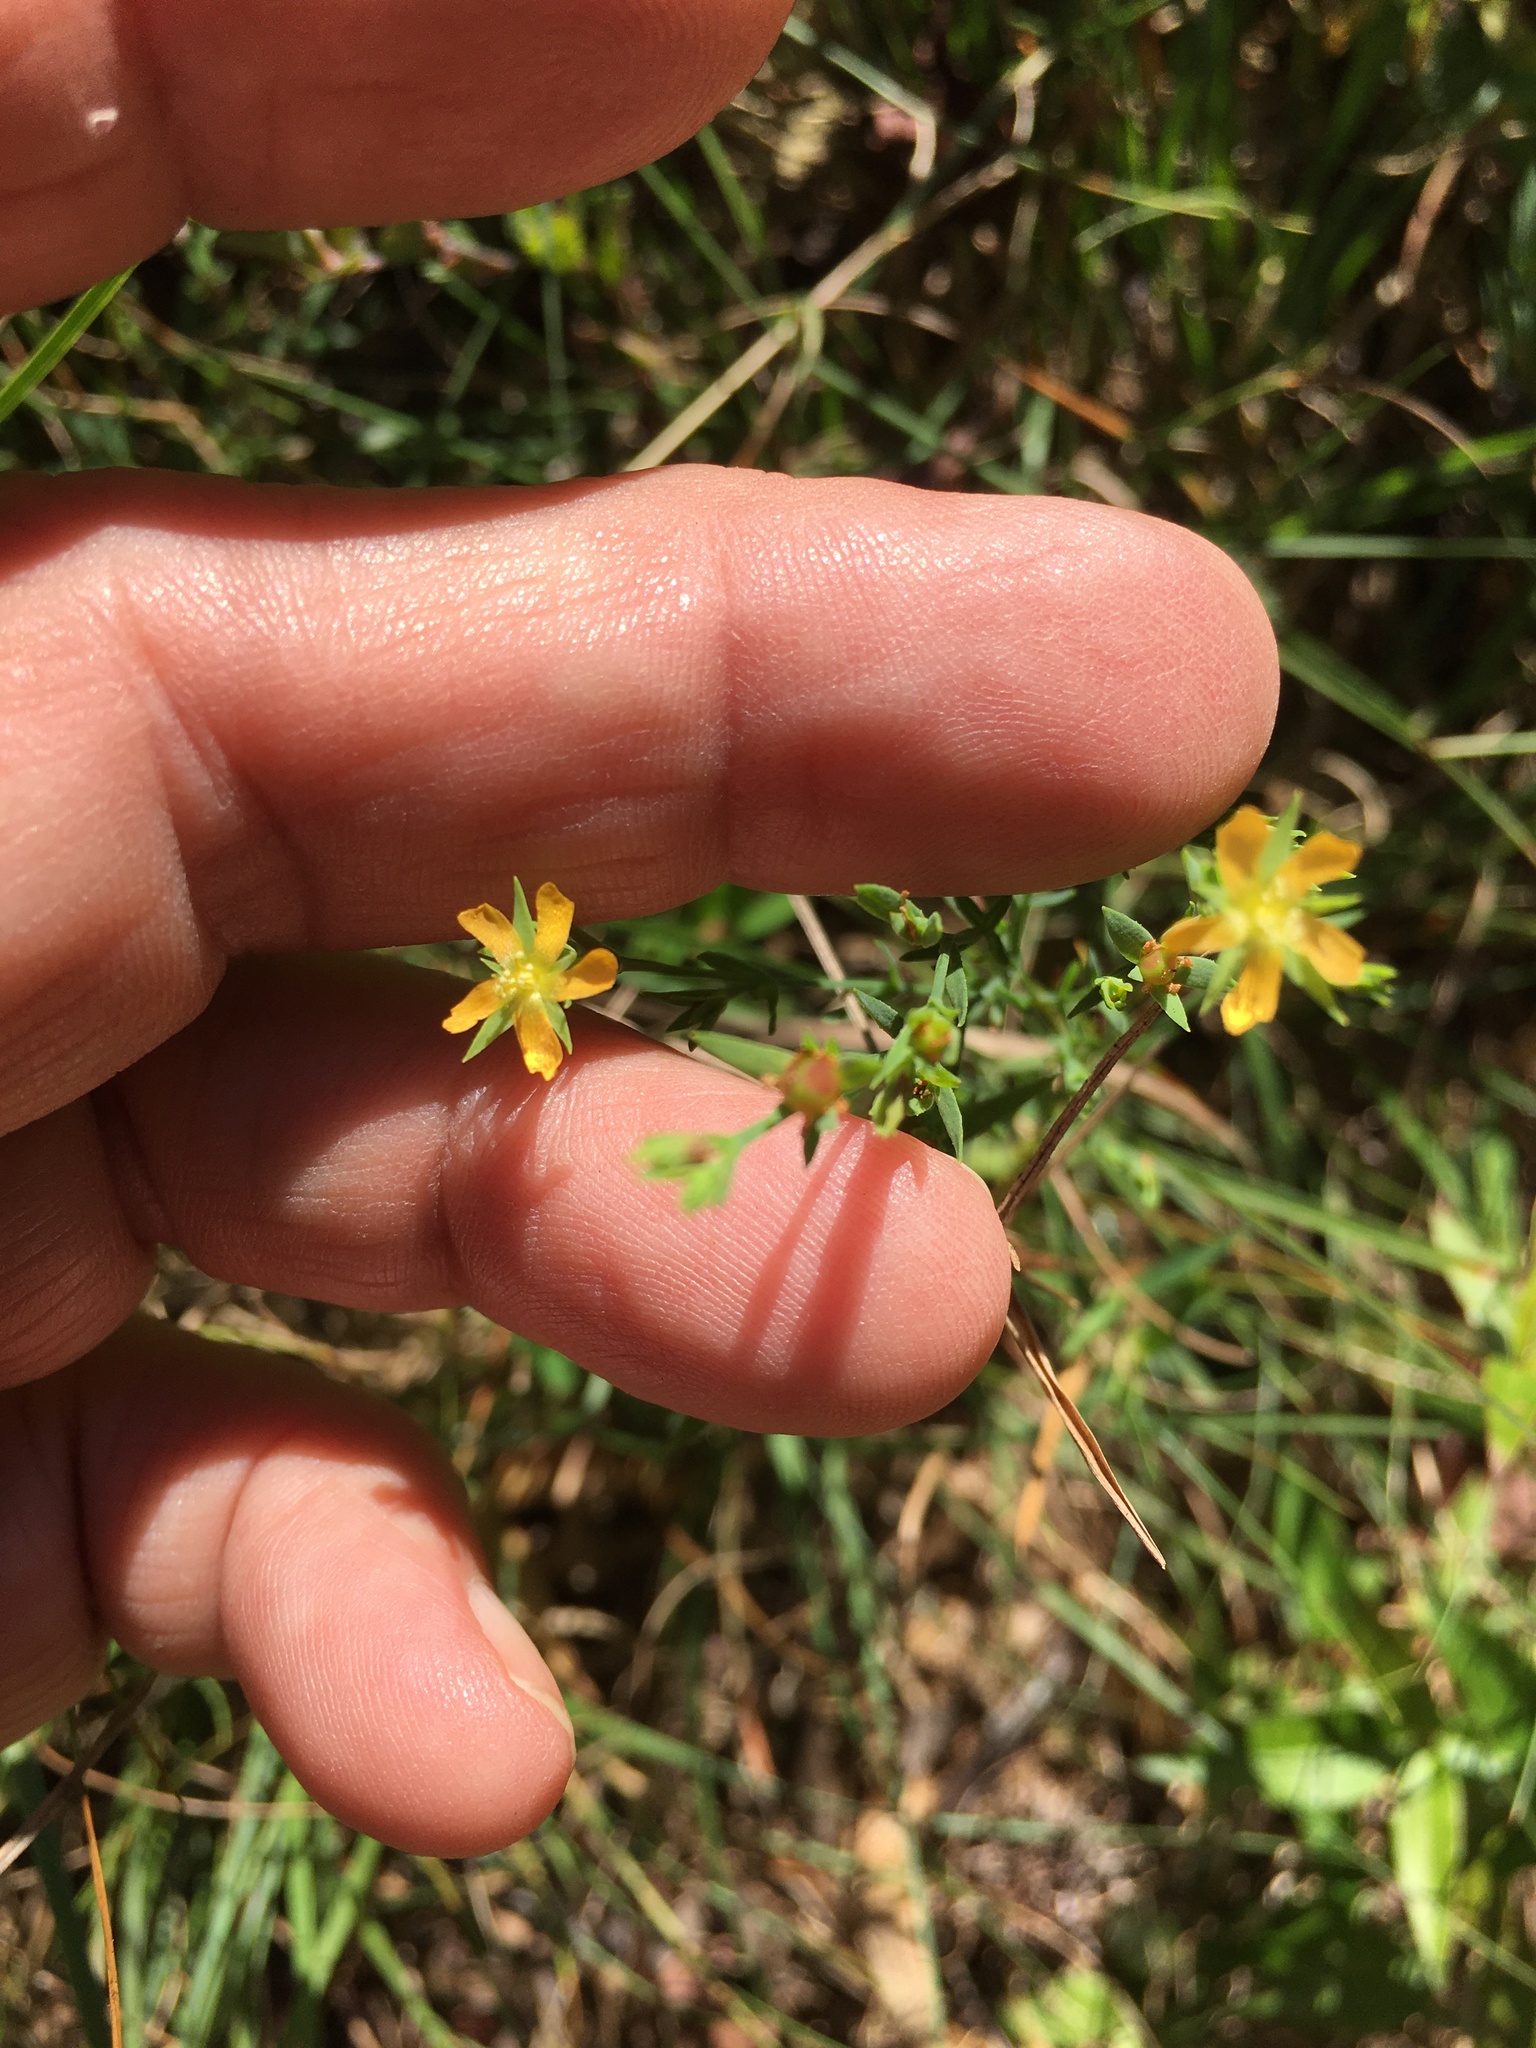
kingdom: Plantae
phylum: Tracheophyta
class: Magnoliopsida
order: Malpighiales
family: Hypericaceae
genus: Hypericum
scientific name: Hypericum drummondii
